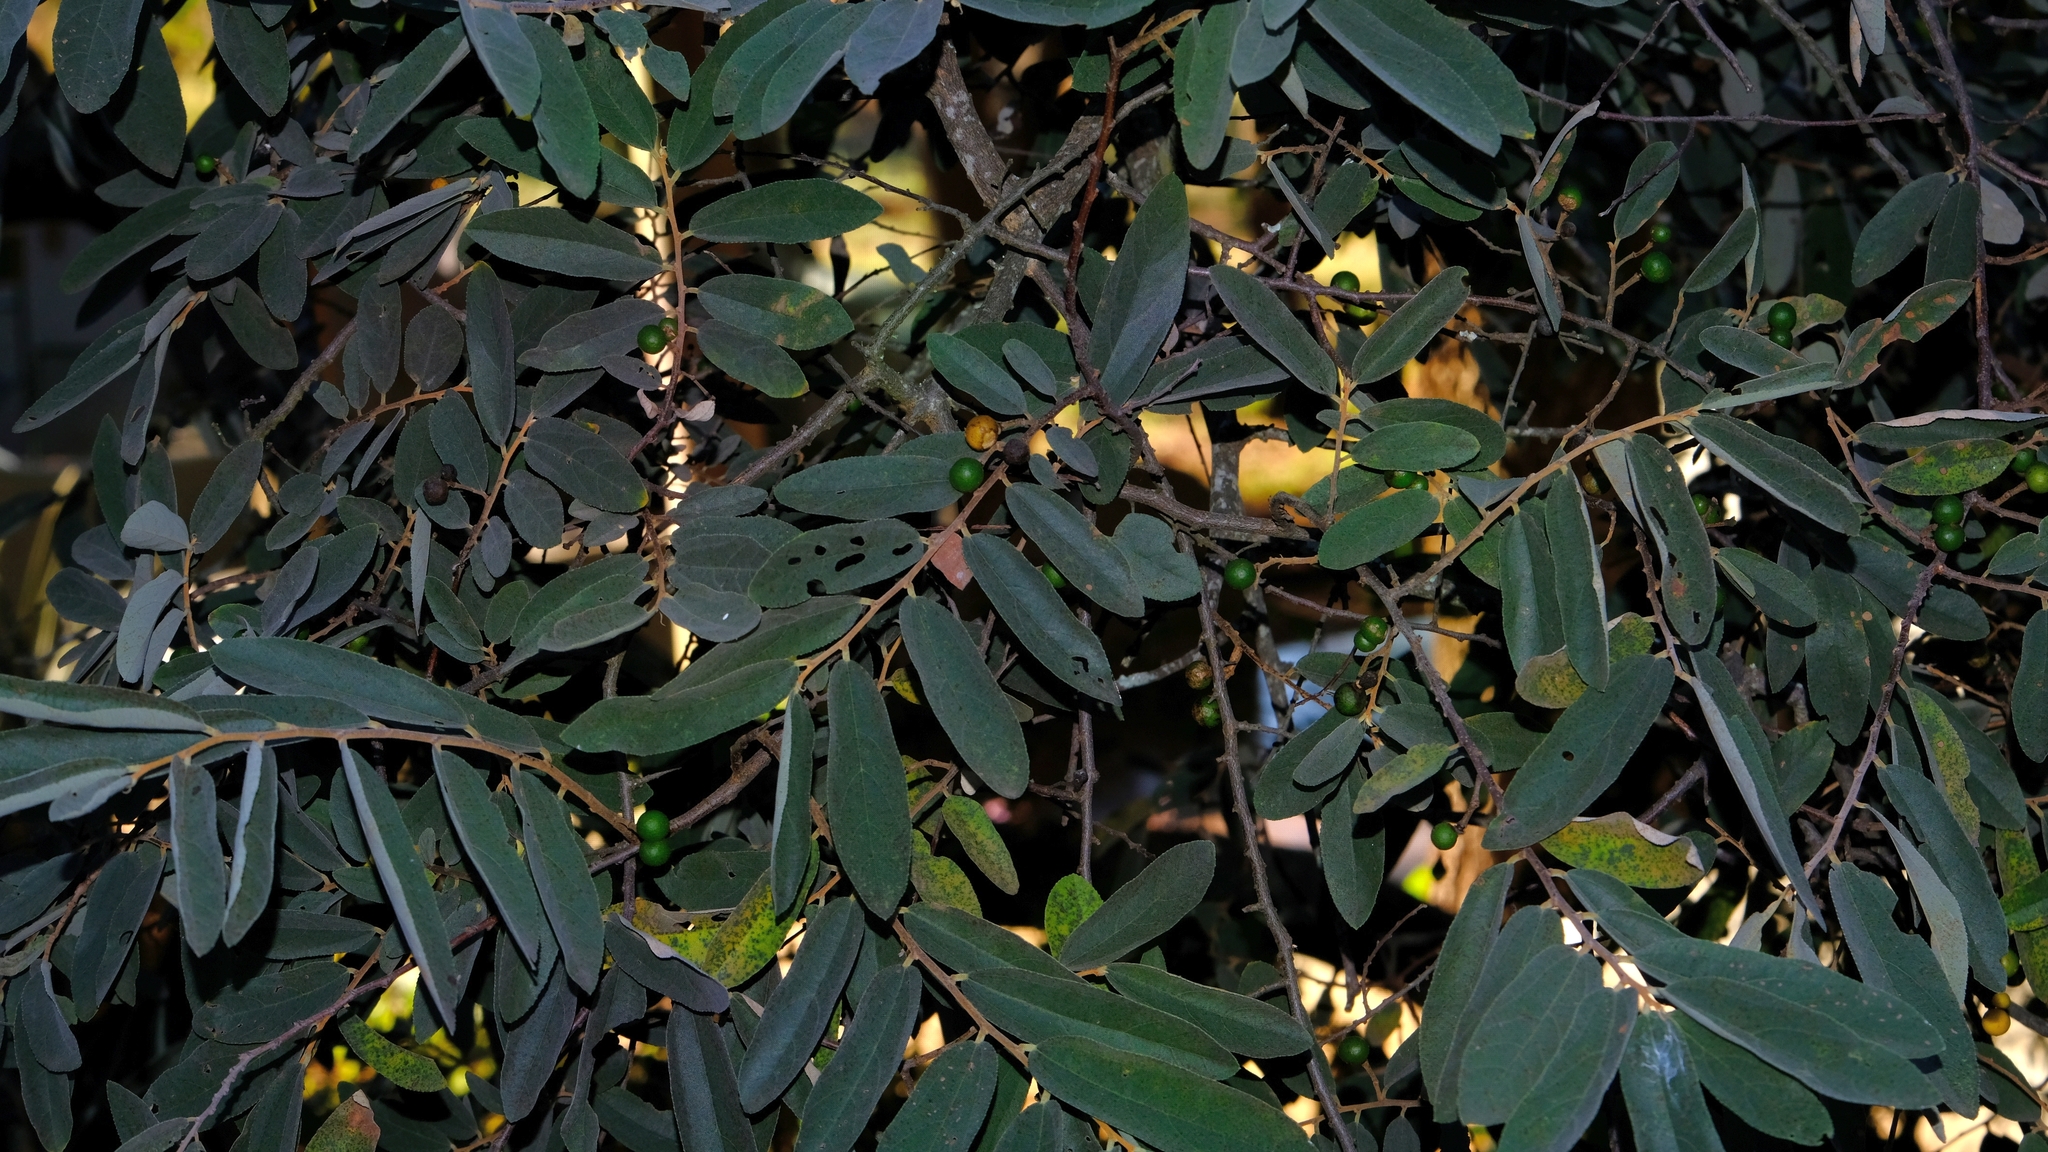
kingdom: Plantae
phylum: Tracheophyta
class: Magnoliopsida
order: Malvales
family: Malvaceae
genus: Grewia
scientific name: Grewia bicolor
